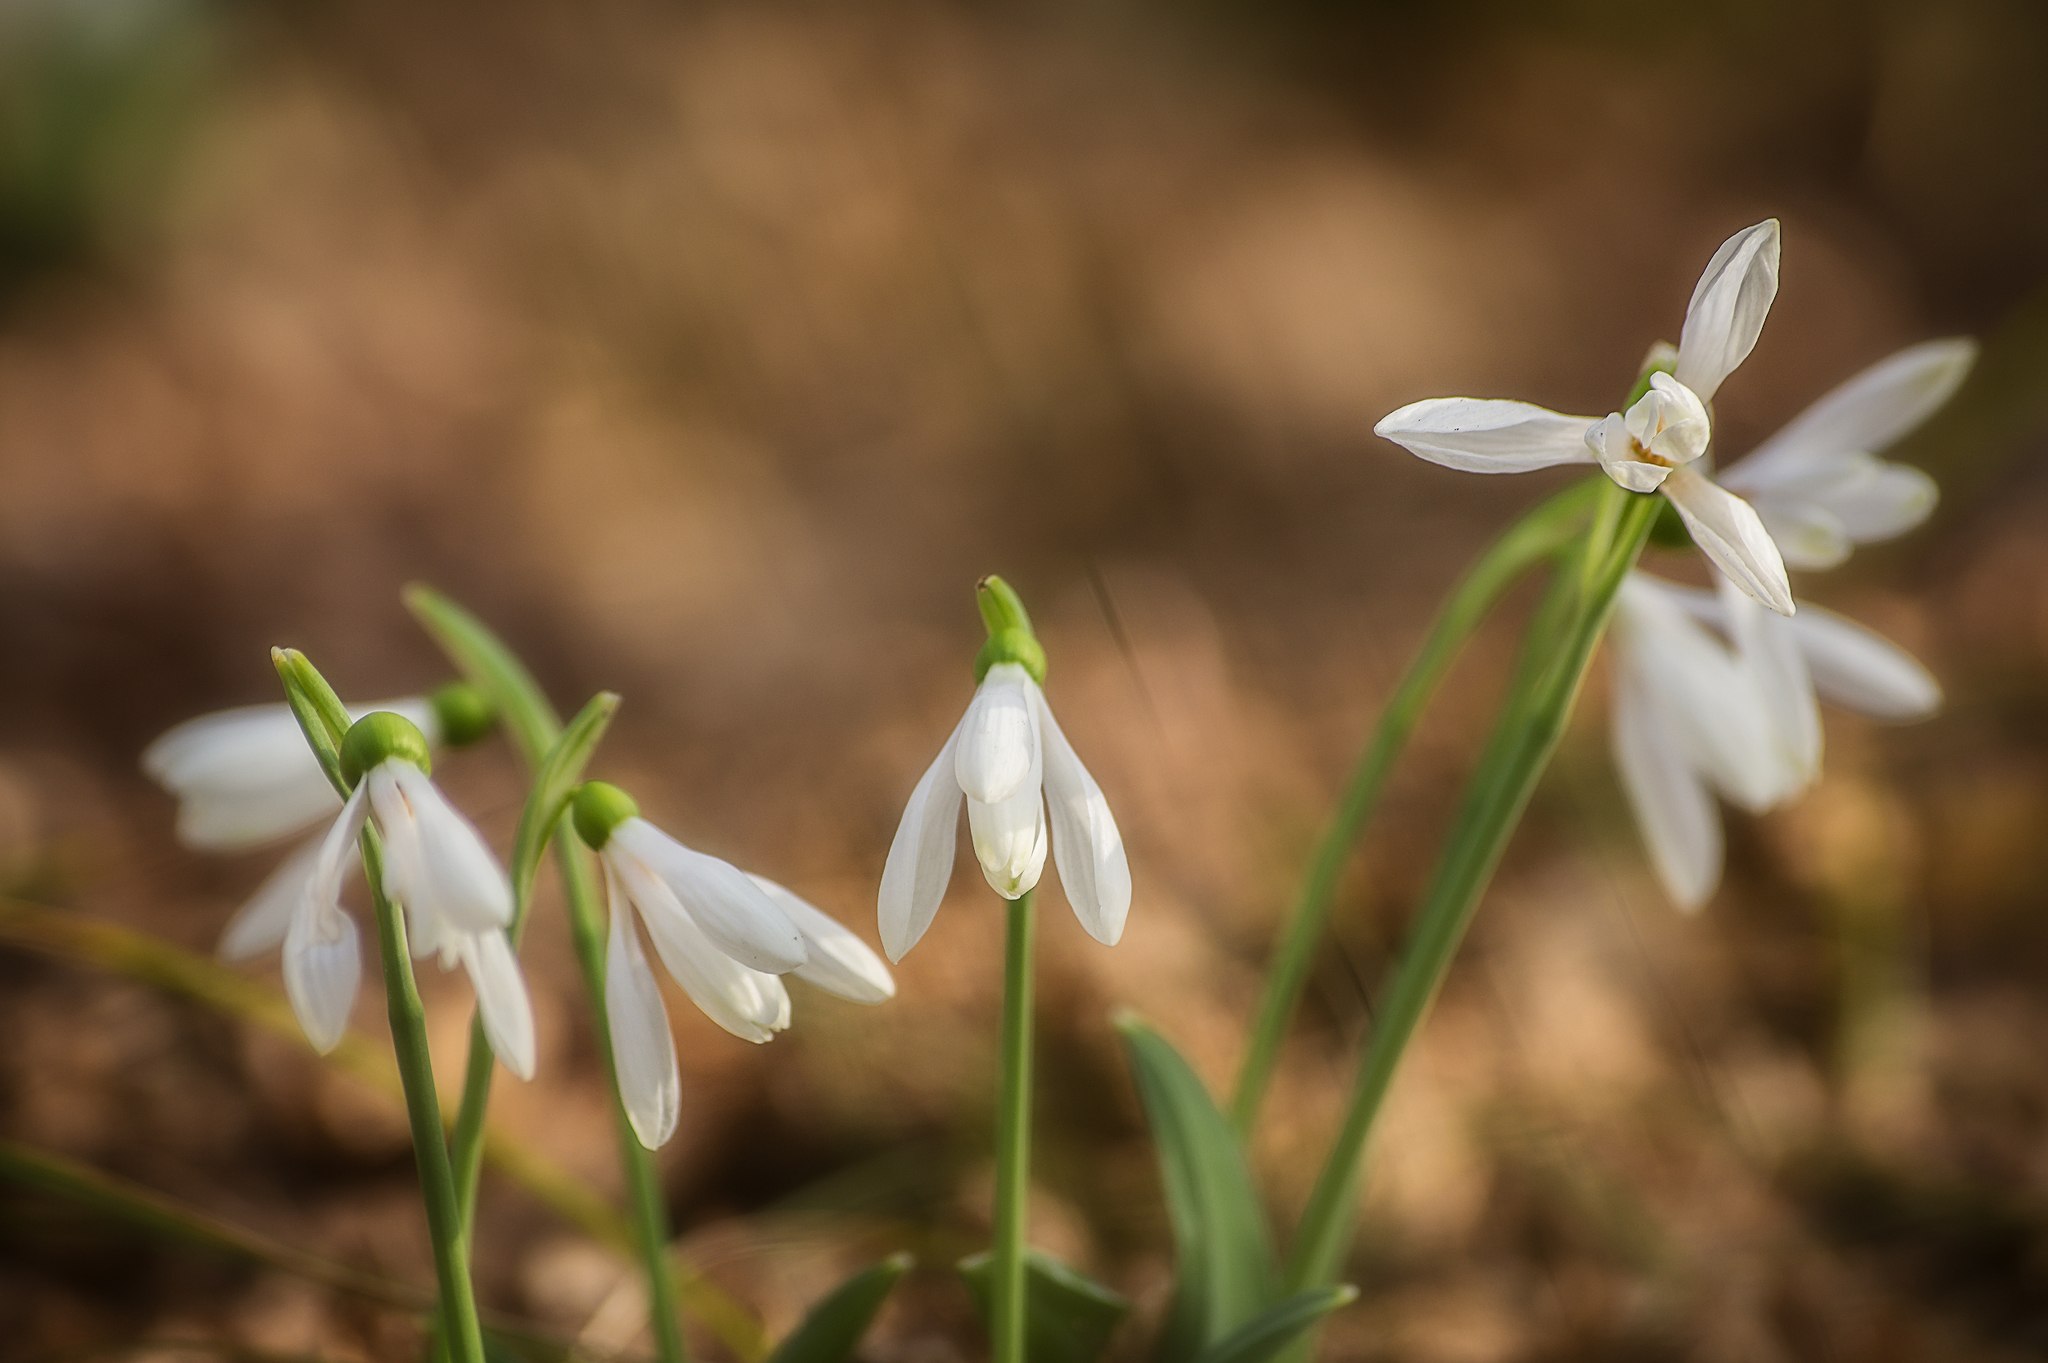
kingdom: Plantae
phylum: Tracheophyta
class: Liliopsida
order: Asparagales
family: Amaryllidaceae
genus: Galanthus
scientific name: Galanthus plicatus
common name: Pleated snowdrop
